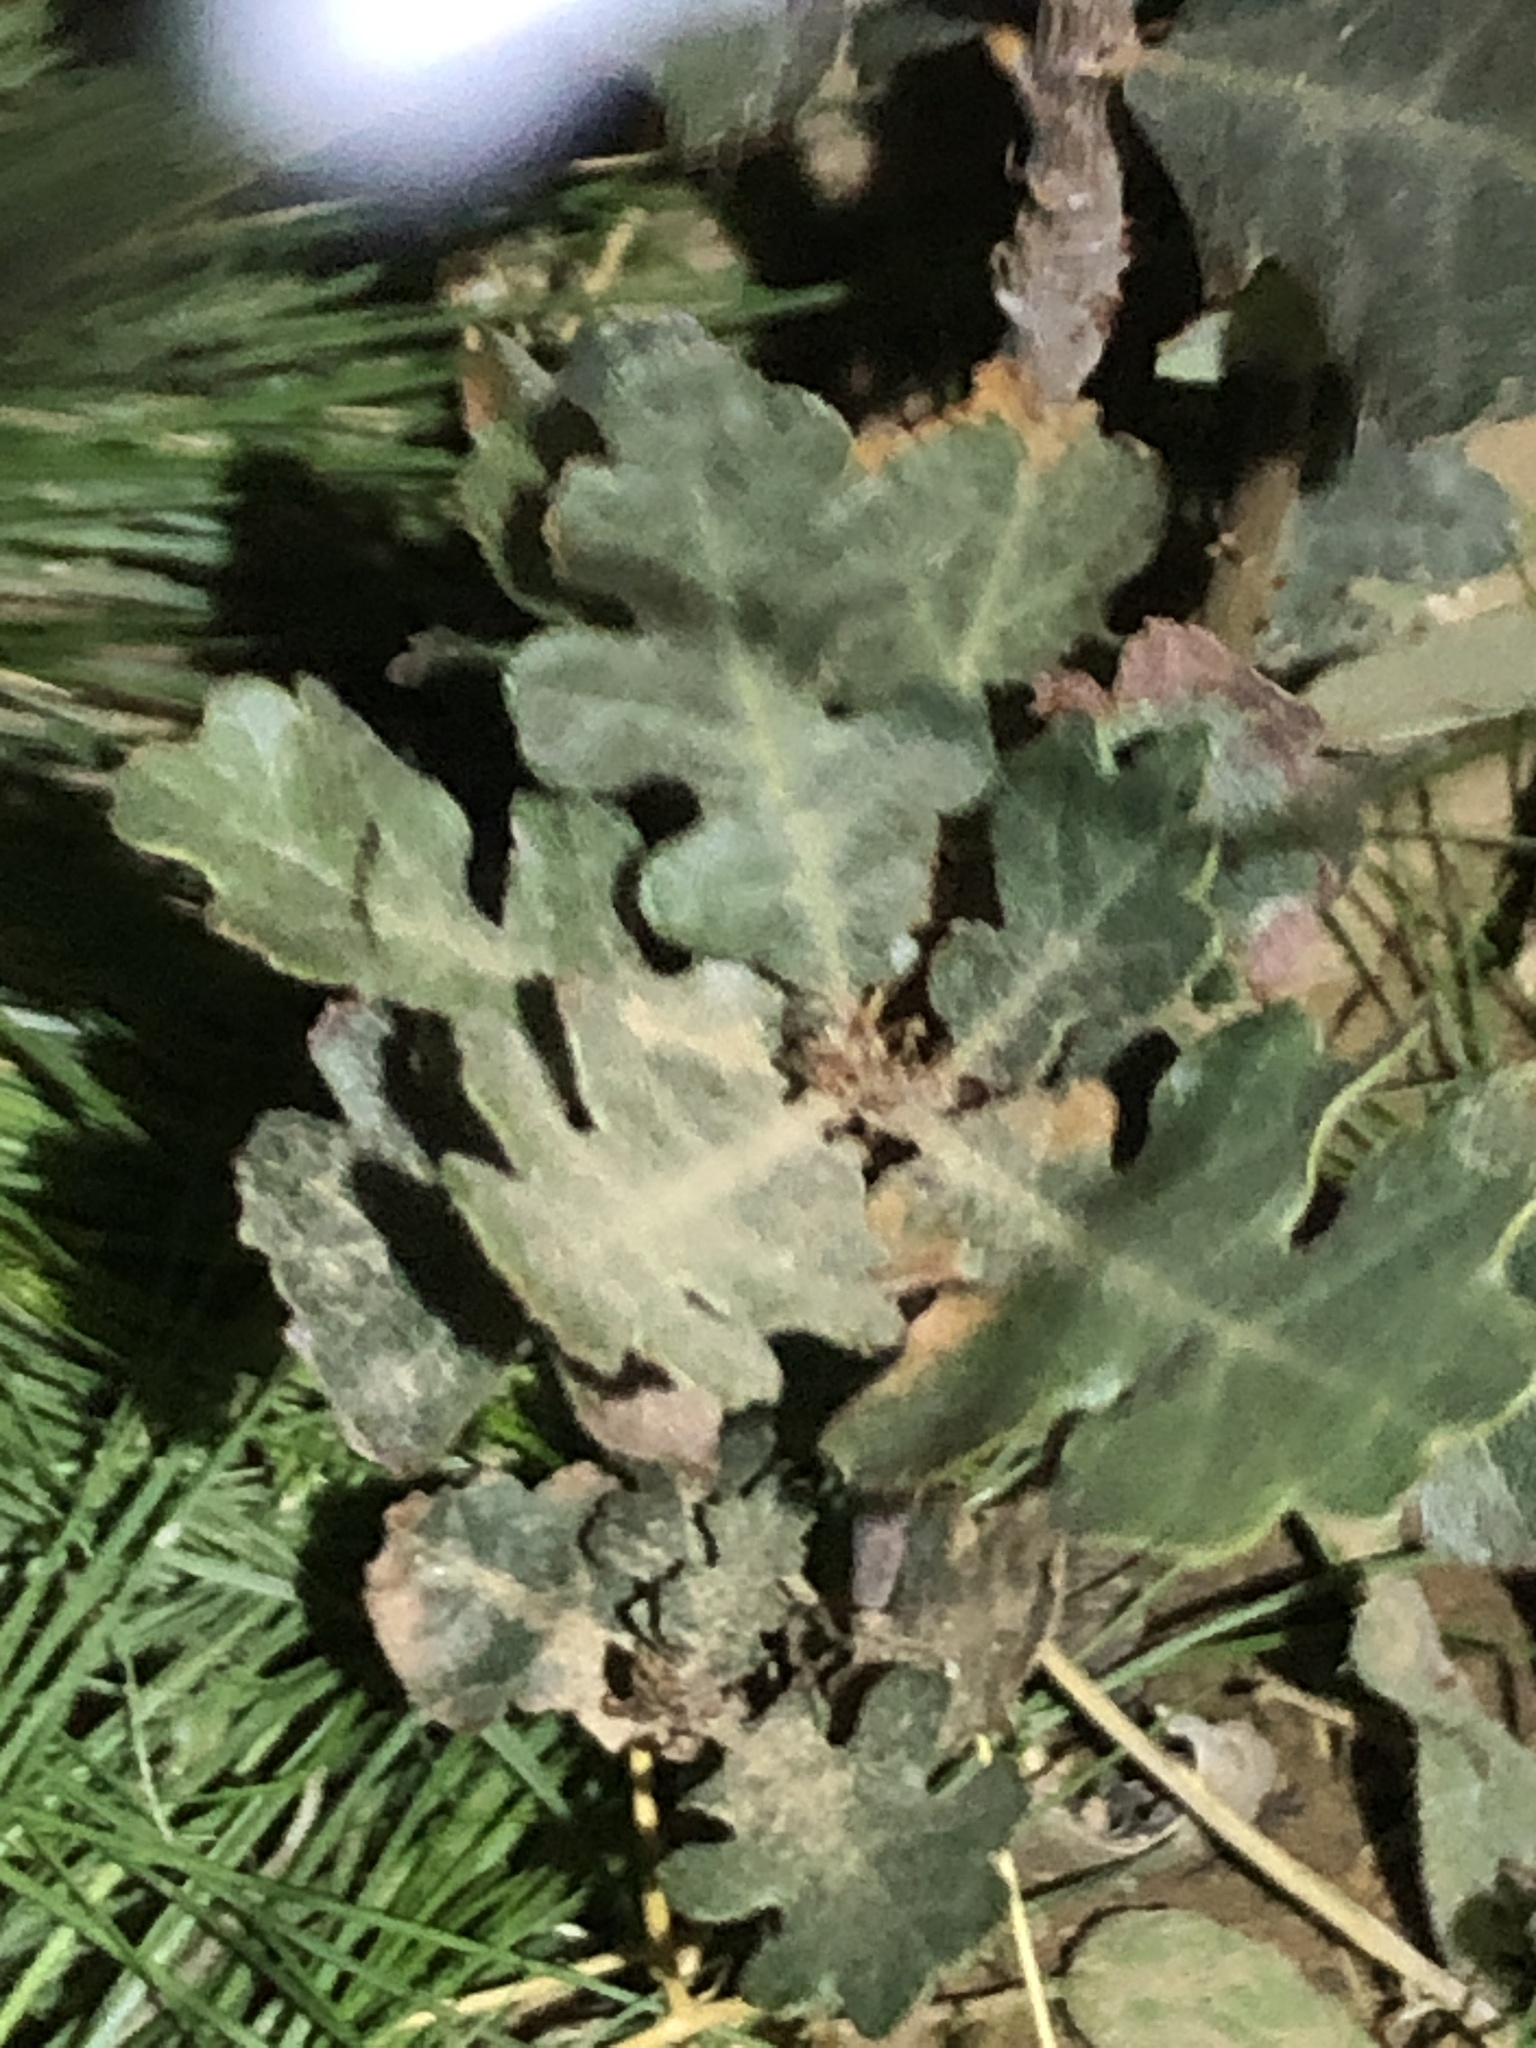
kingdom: Plantae
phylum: Tracheophyta
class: Magnoliopsida
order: Fagales
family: Fagaceae
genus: Quercus
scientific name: Quercus lobata
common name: Valley oak
